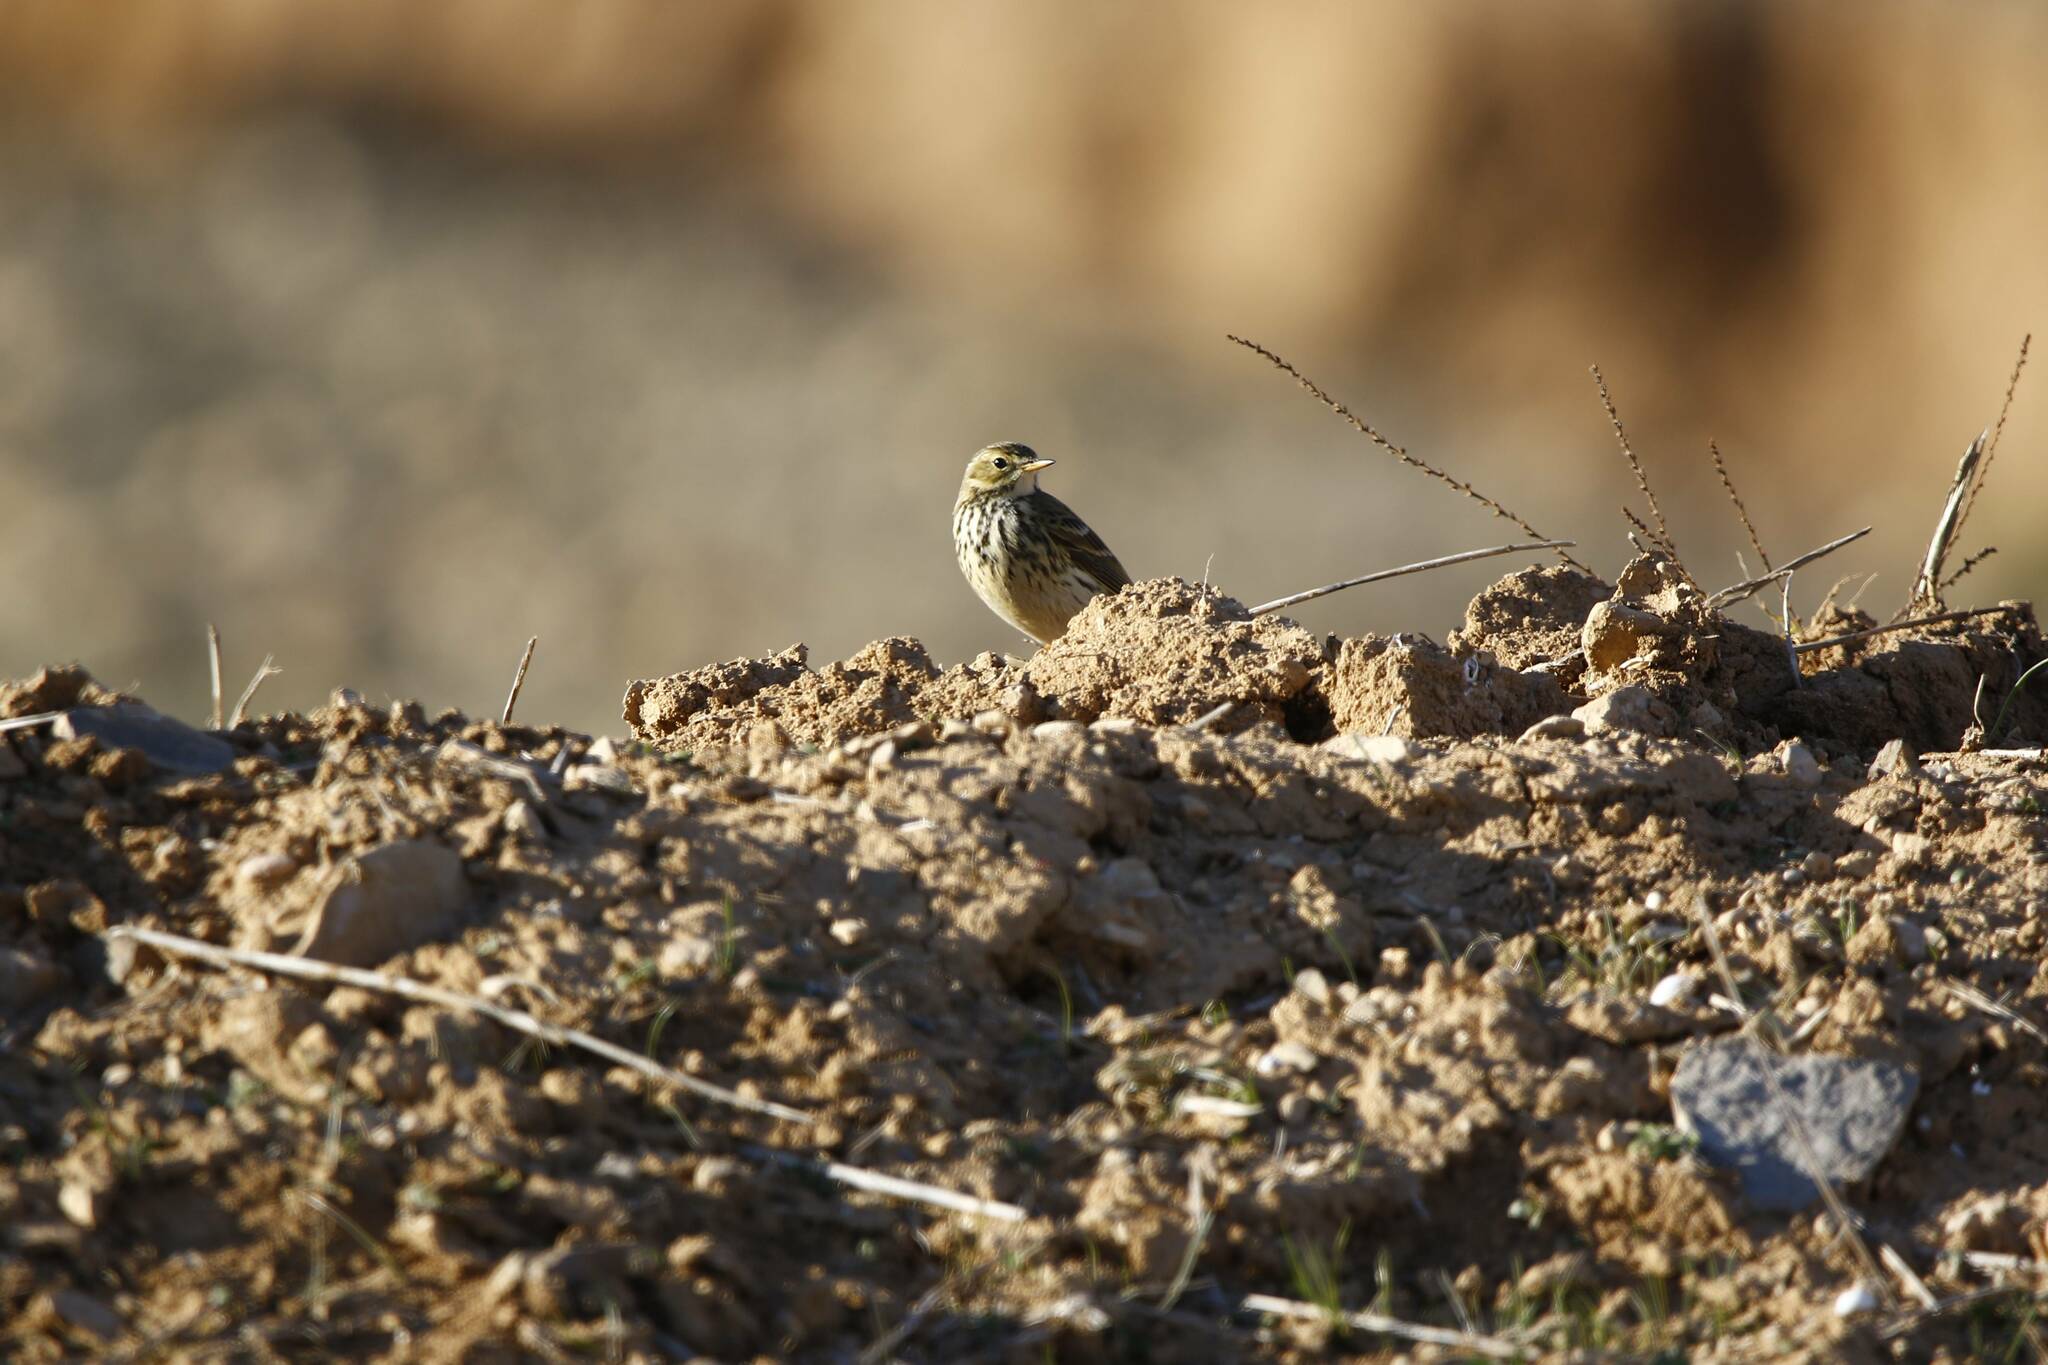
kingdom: Animalia
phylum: Chordata
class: Aves
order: Passeriformes
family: Motacillidae
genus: Anthus
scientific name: Anthus pratensis
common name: Meadow pipit
